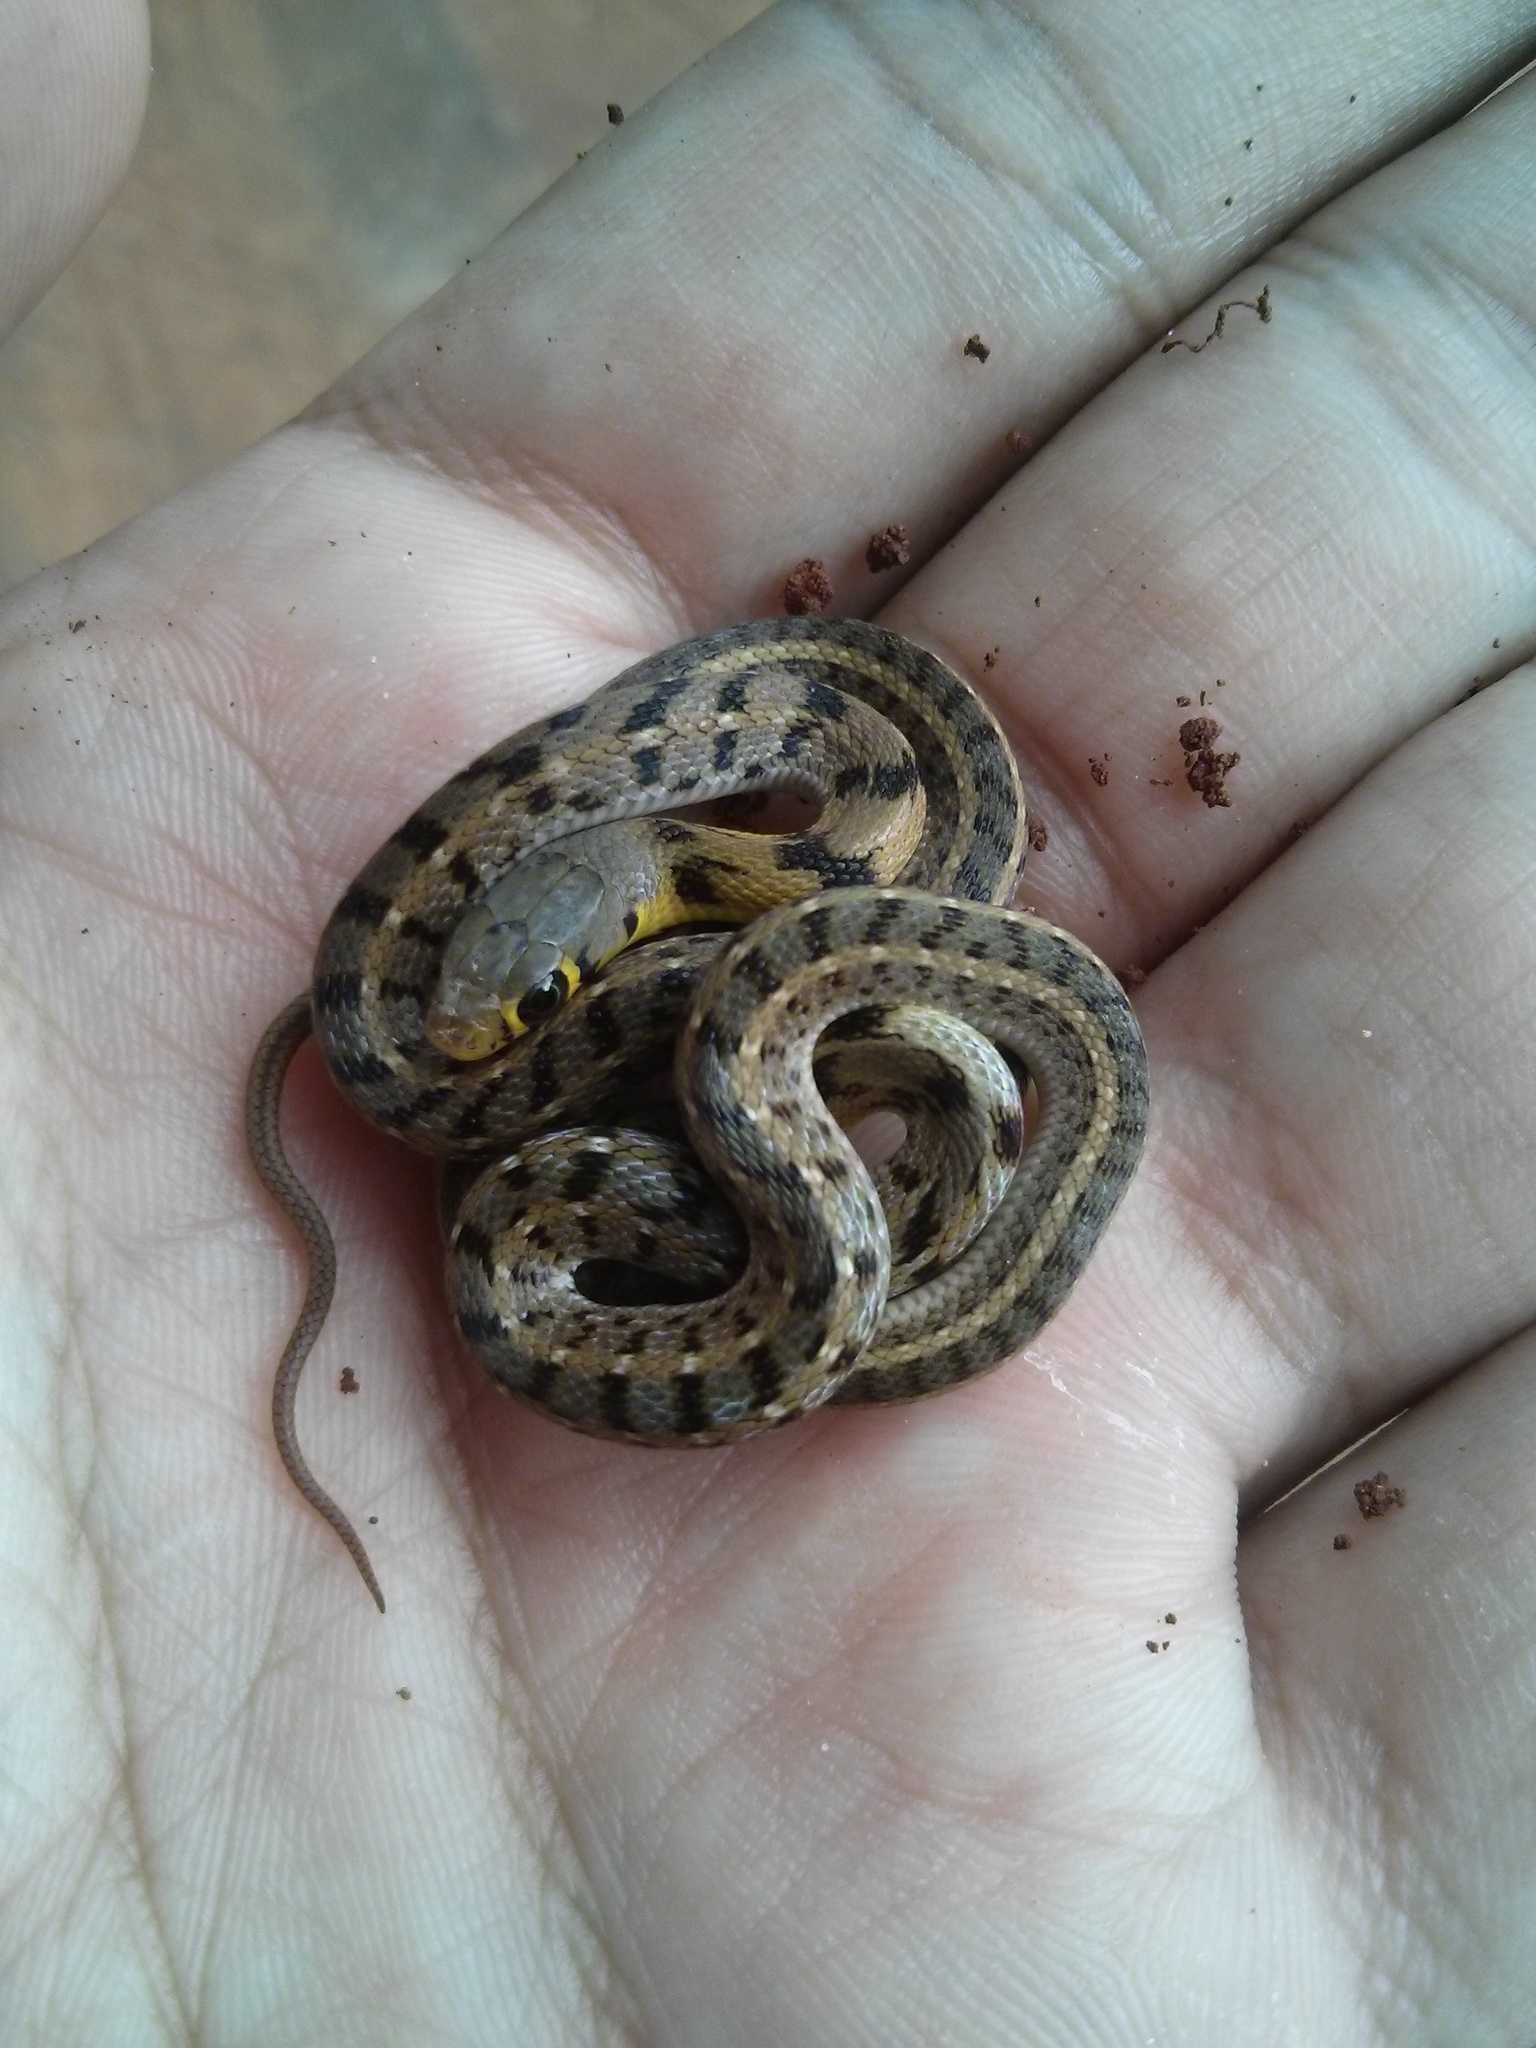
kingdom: Animalia
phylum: Chordata
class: Squamata
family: Colubridae
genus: Amphiesma
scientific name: Amphiesma stolatum
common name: Buff striped keelback
